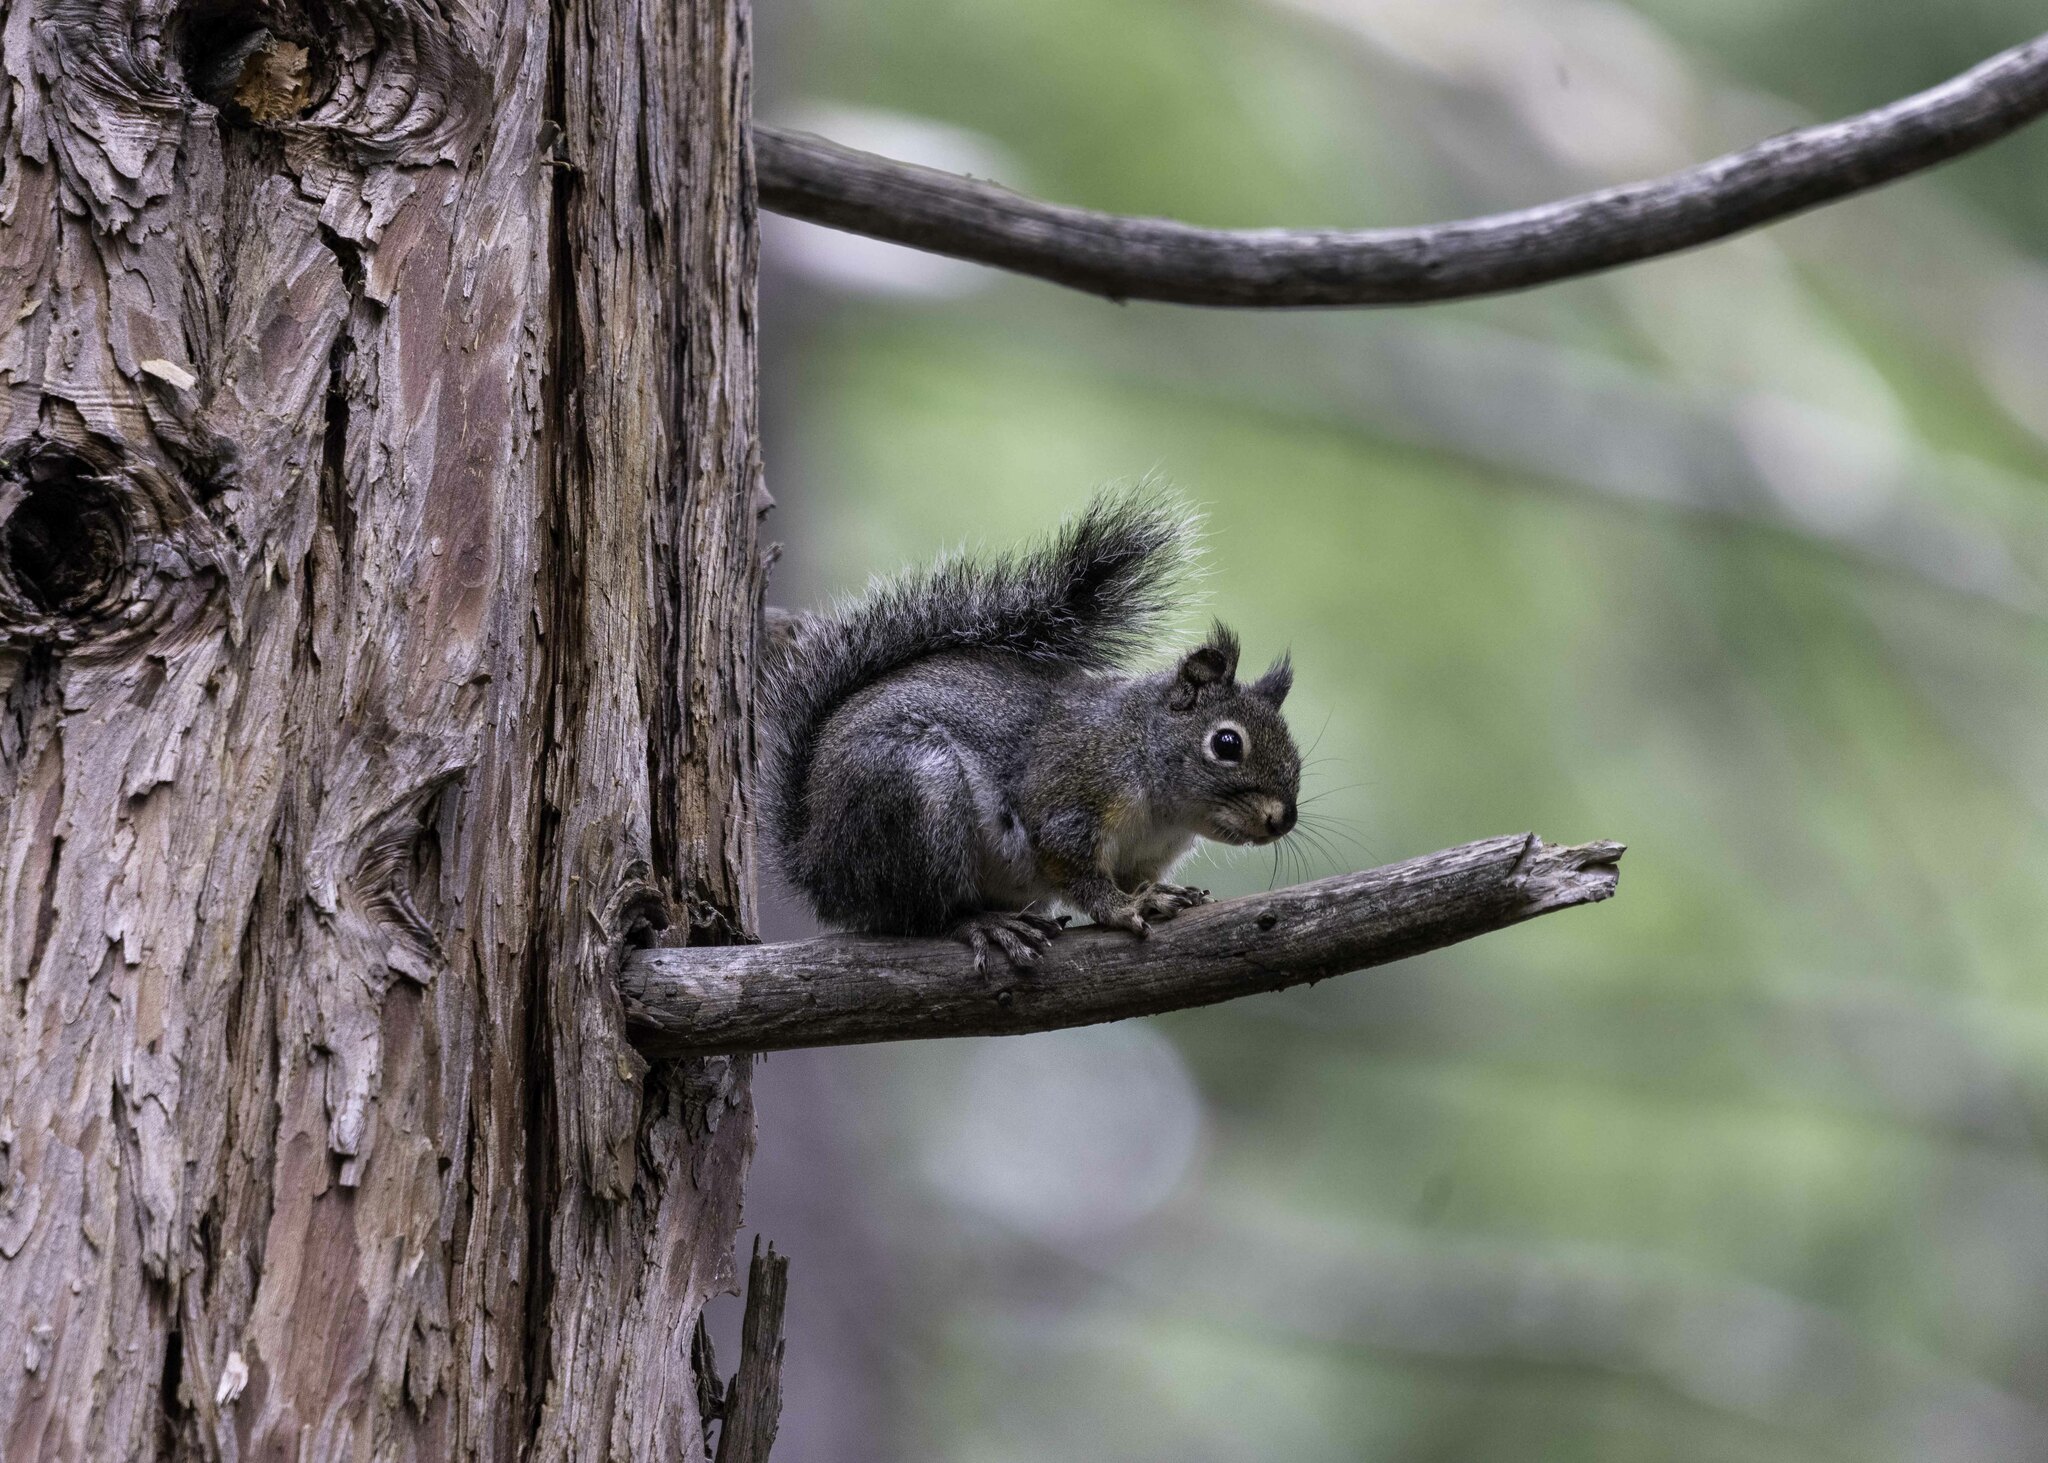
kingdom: Animalia
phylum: Chordata
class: Mammalia
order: Rodentia
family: Sciuridae
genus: Tamiasciurus
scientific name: Tamiasciurus douglasii
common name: Douglas's squirrel
